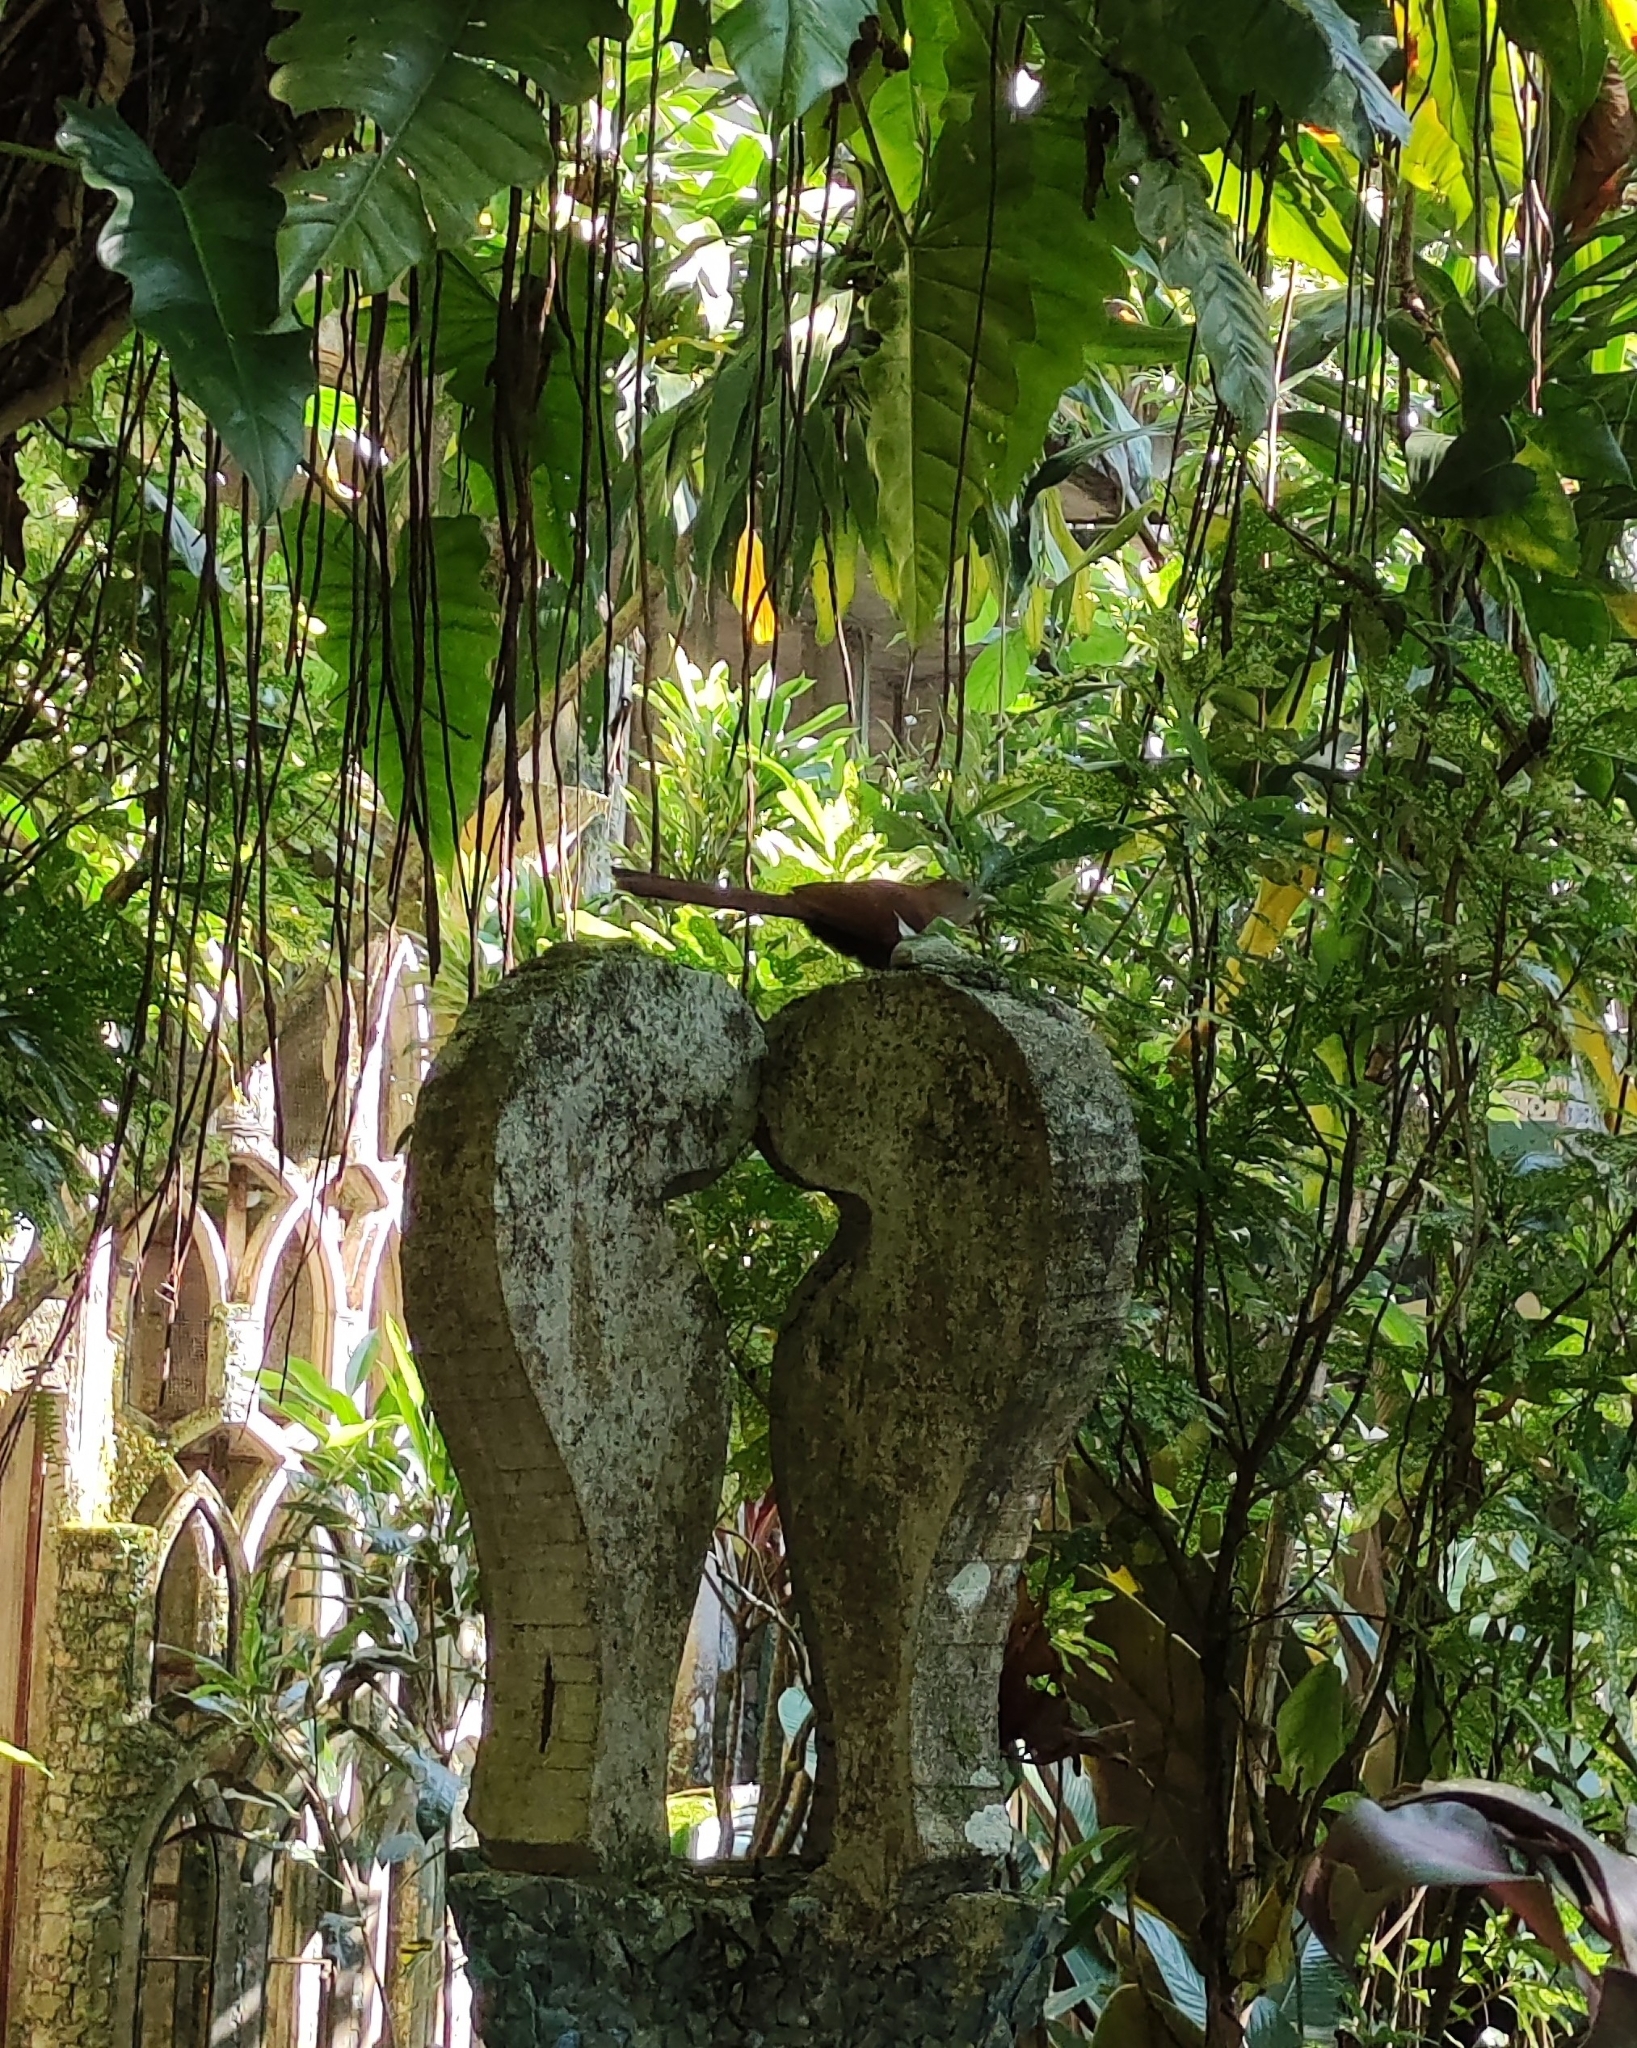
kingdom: Animalia
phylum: Chordata
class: Aves
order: Cuculiformes
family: Cuculidae
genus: Piaya
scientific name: Piaya cayana
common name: Squirrel cuckoo
